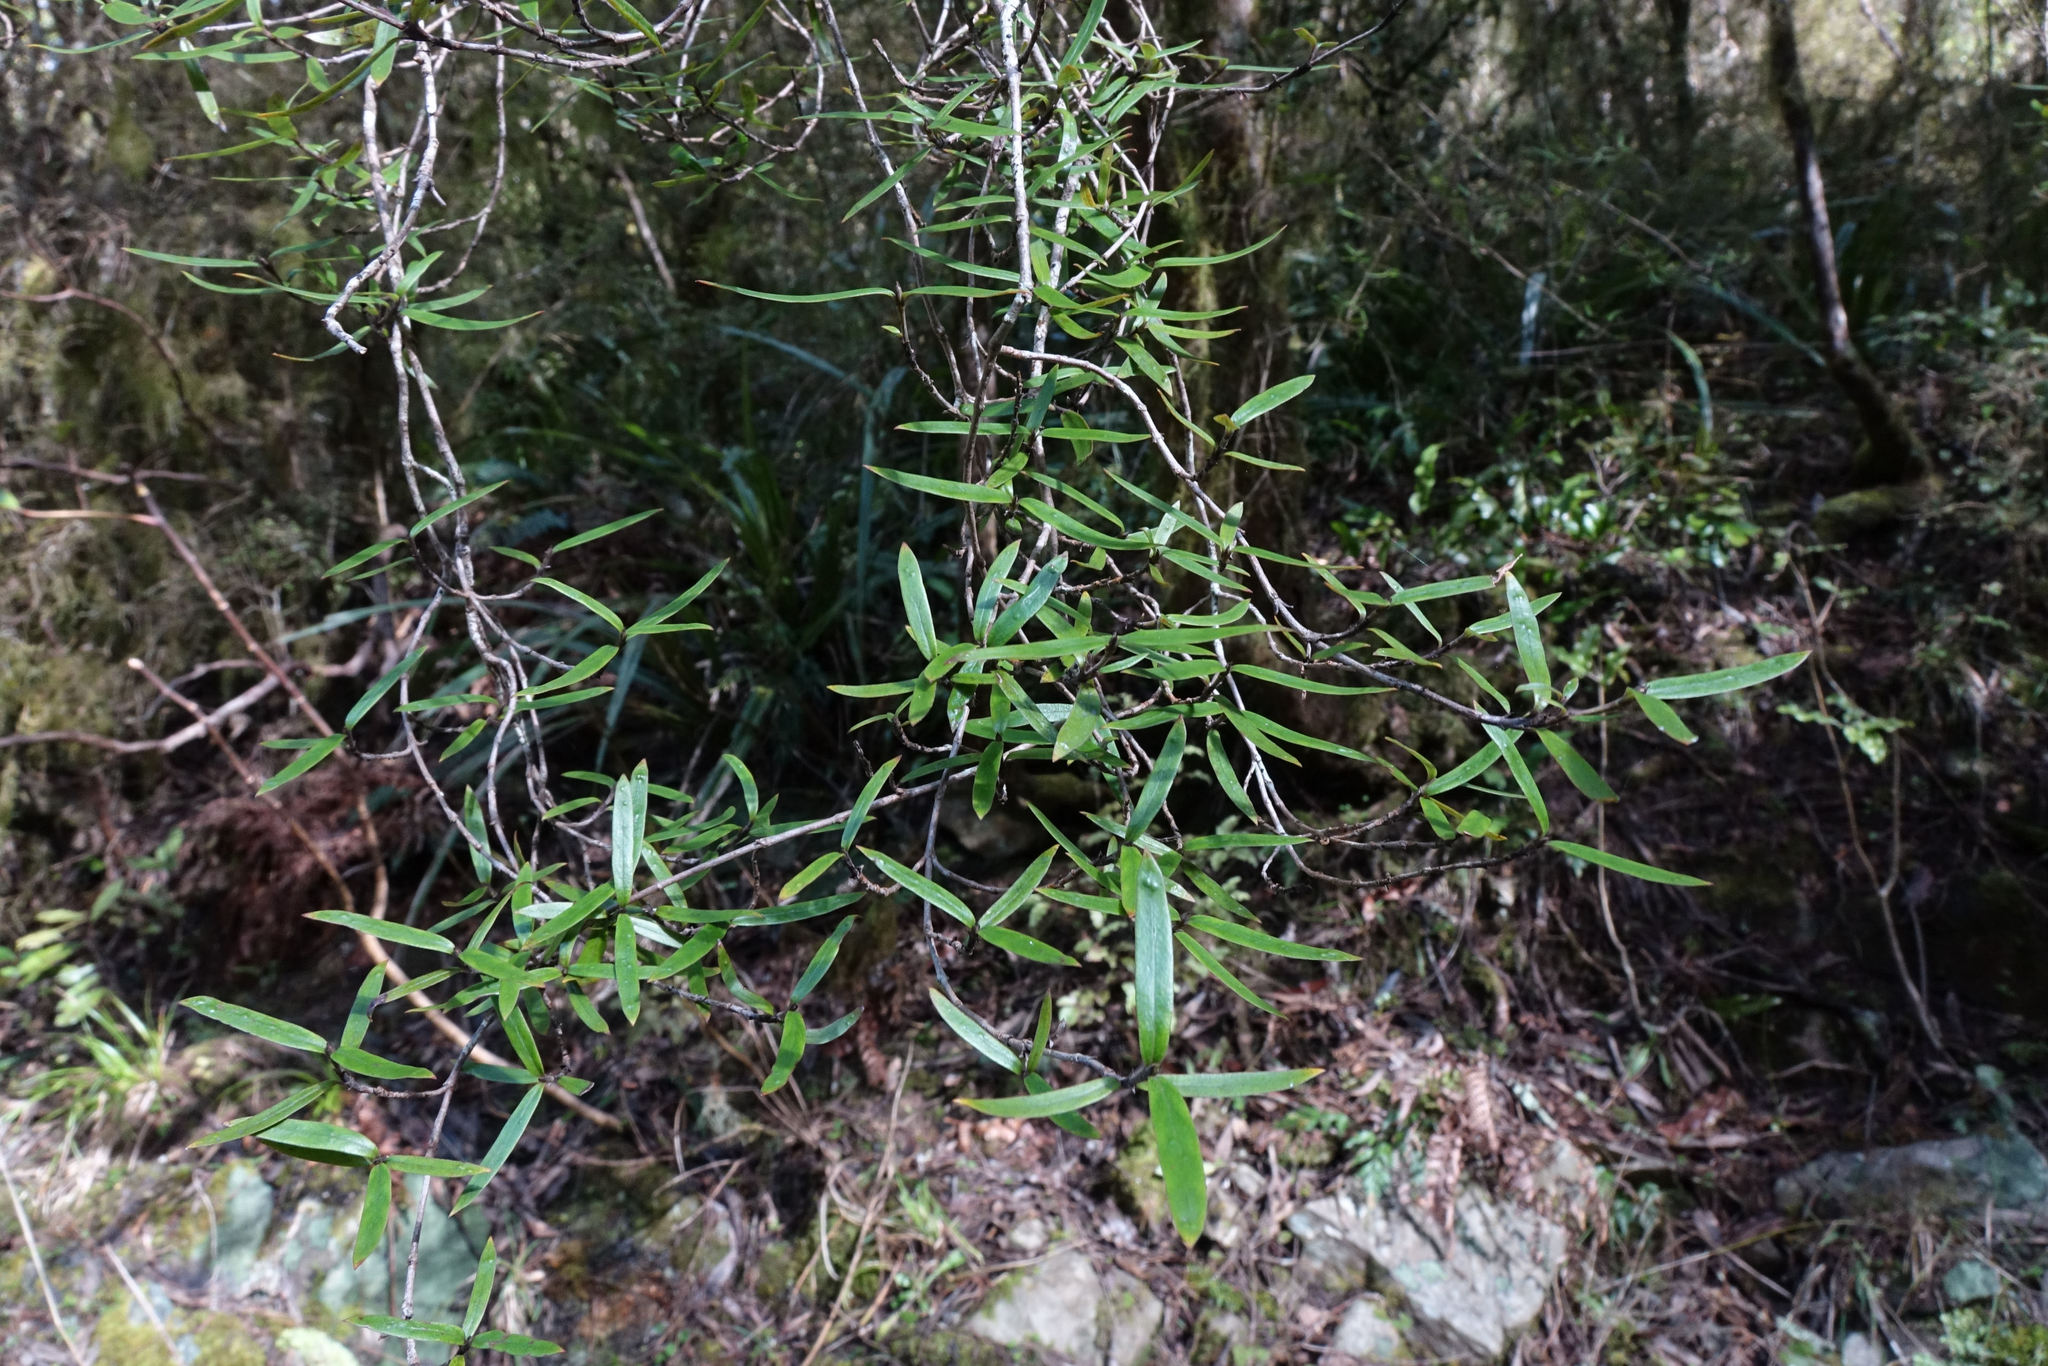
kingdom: Plantae
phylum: Tracheophyta
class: Magnoliopsida
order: Gentianales
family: Rubiaceae
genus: Coprosma
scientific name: Coprosma linariifolia
